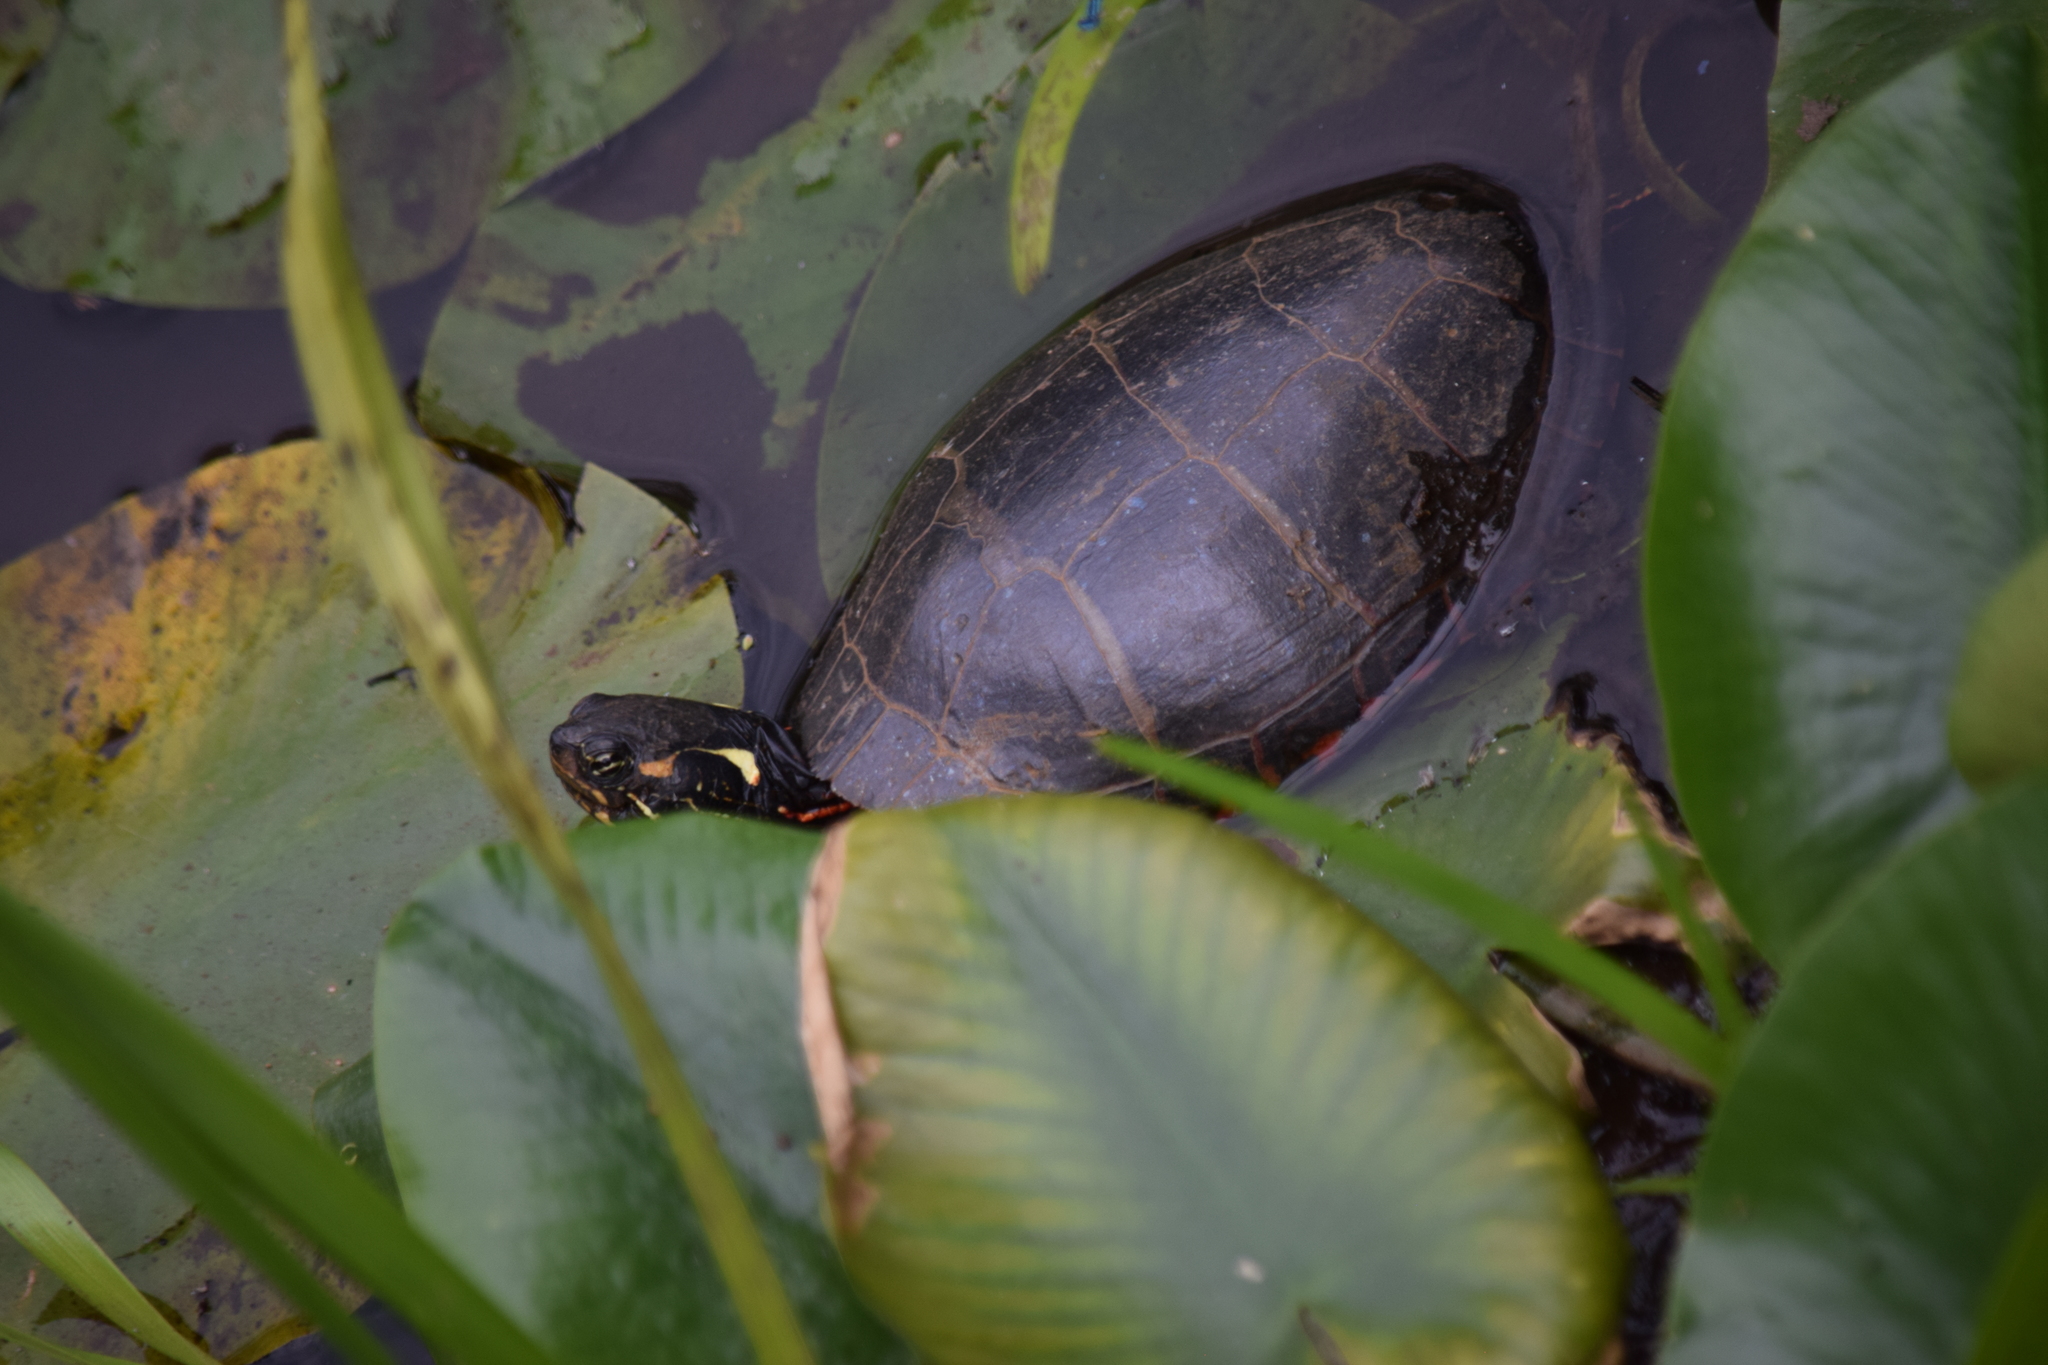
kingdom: Animalia
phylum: Chordata
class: Testudines
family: Emydidae
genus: Chrysemys
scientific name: Chrysemys picta
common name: Painted turtle
